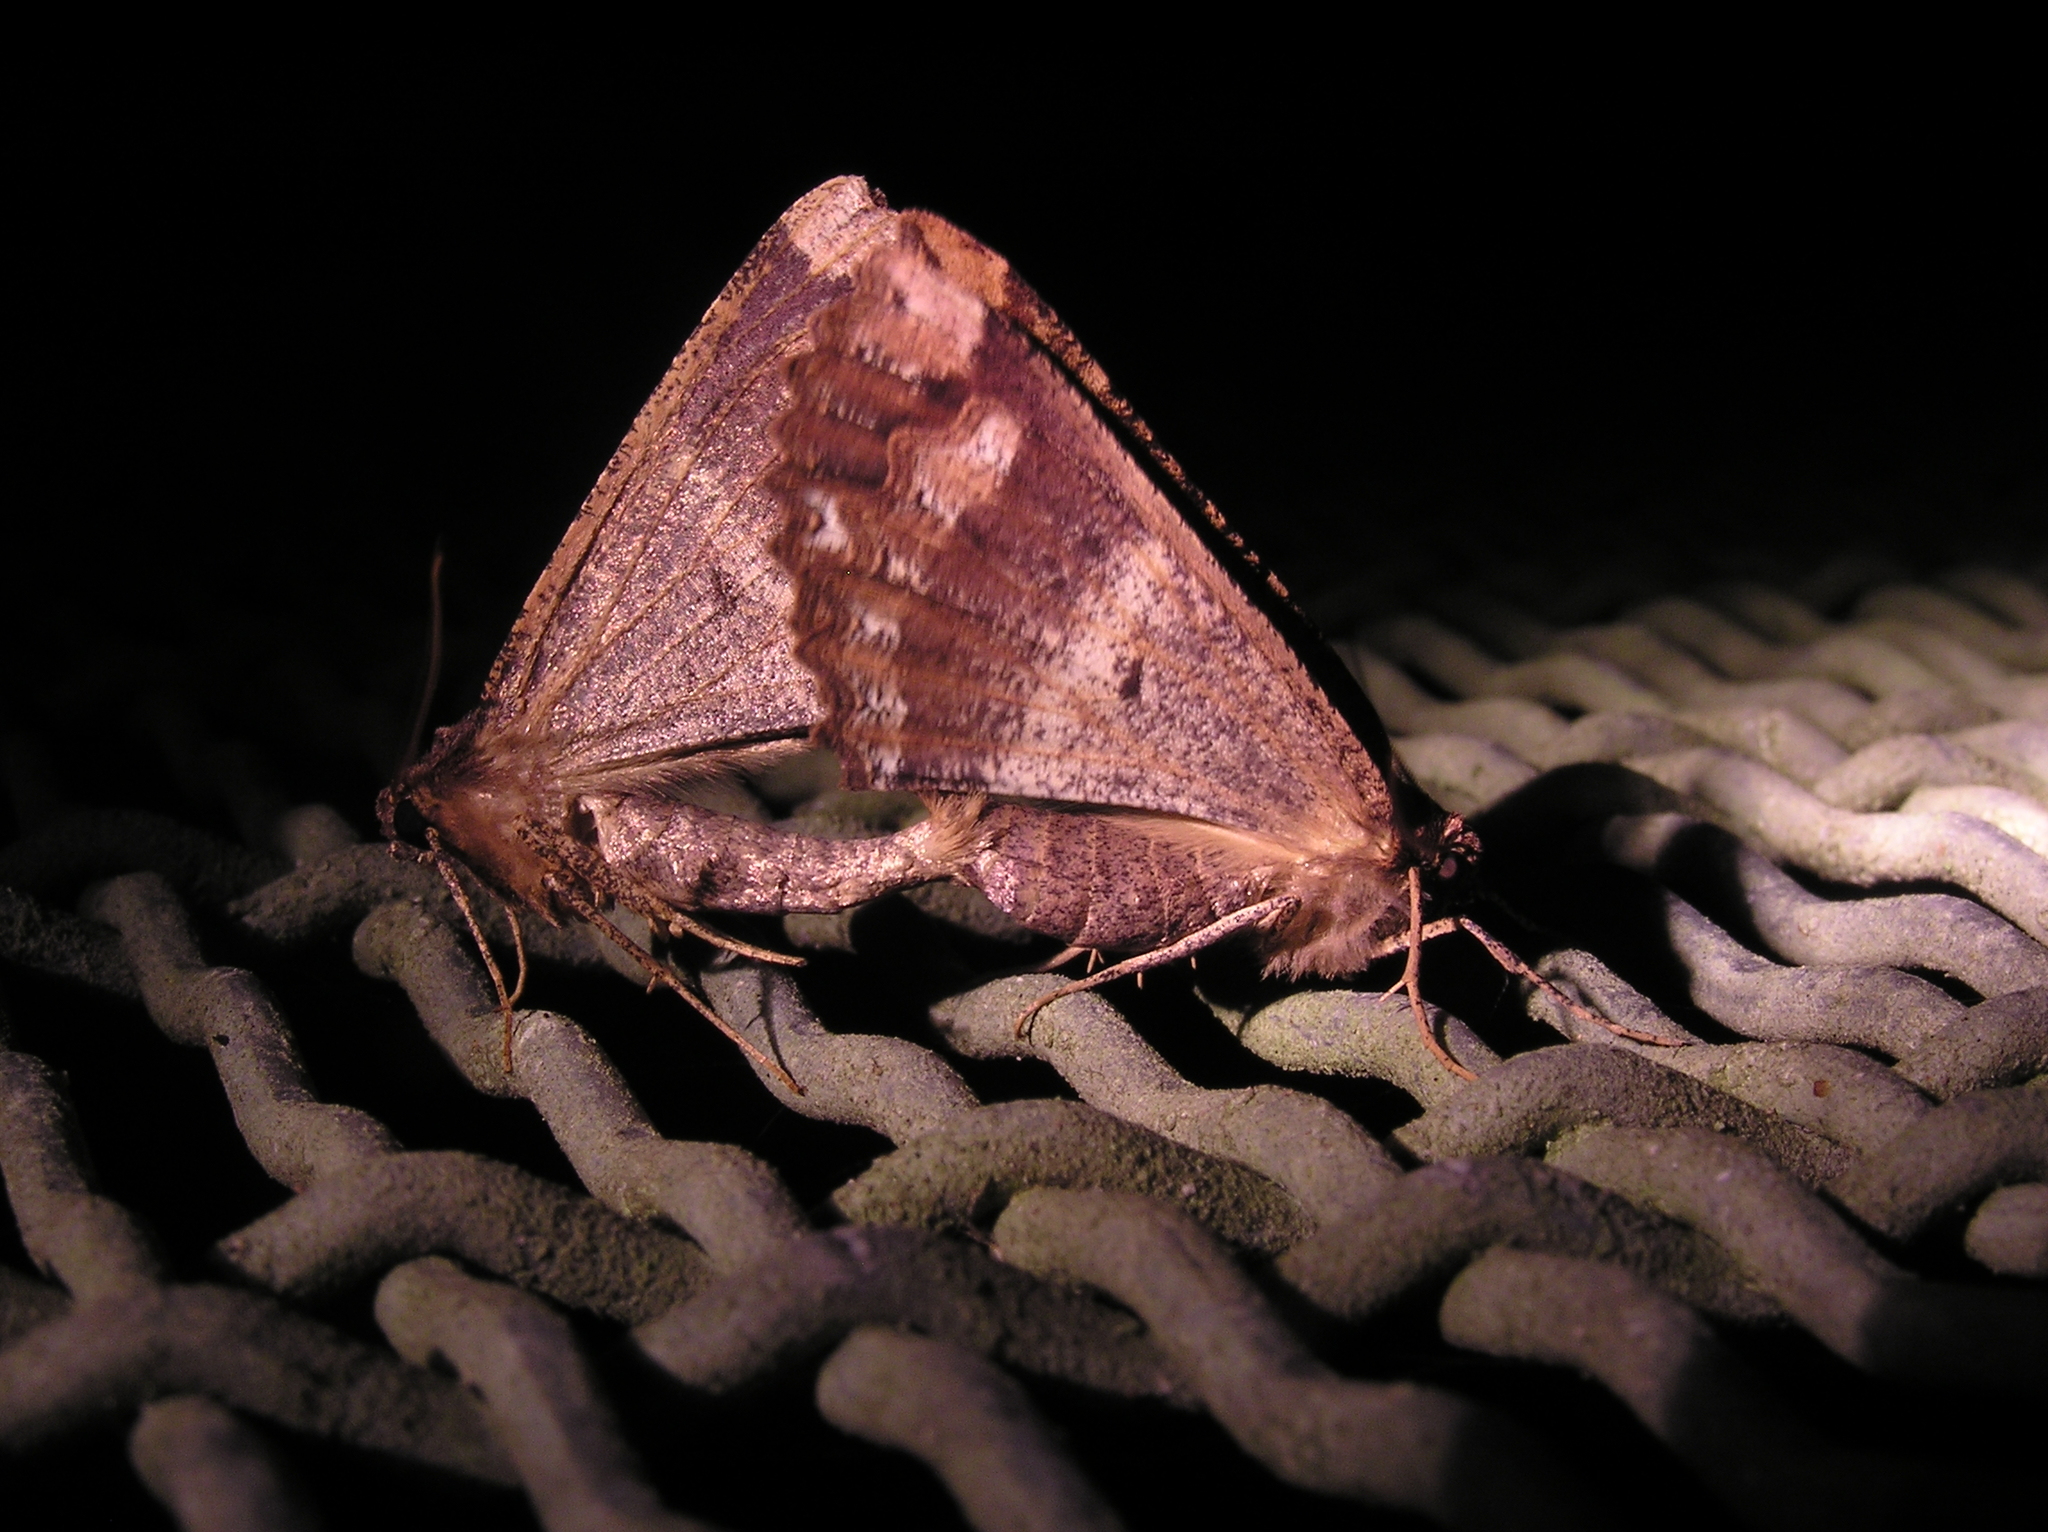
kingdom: Animalia
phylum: Arthropoda
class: Insecta
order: Lepidoptera
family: Geometridae
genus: Gellonia
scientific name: Gellonia dejectaria
